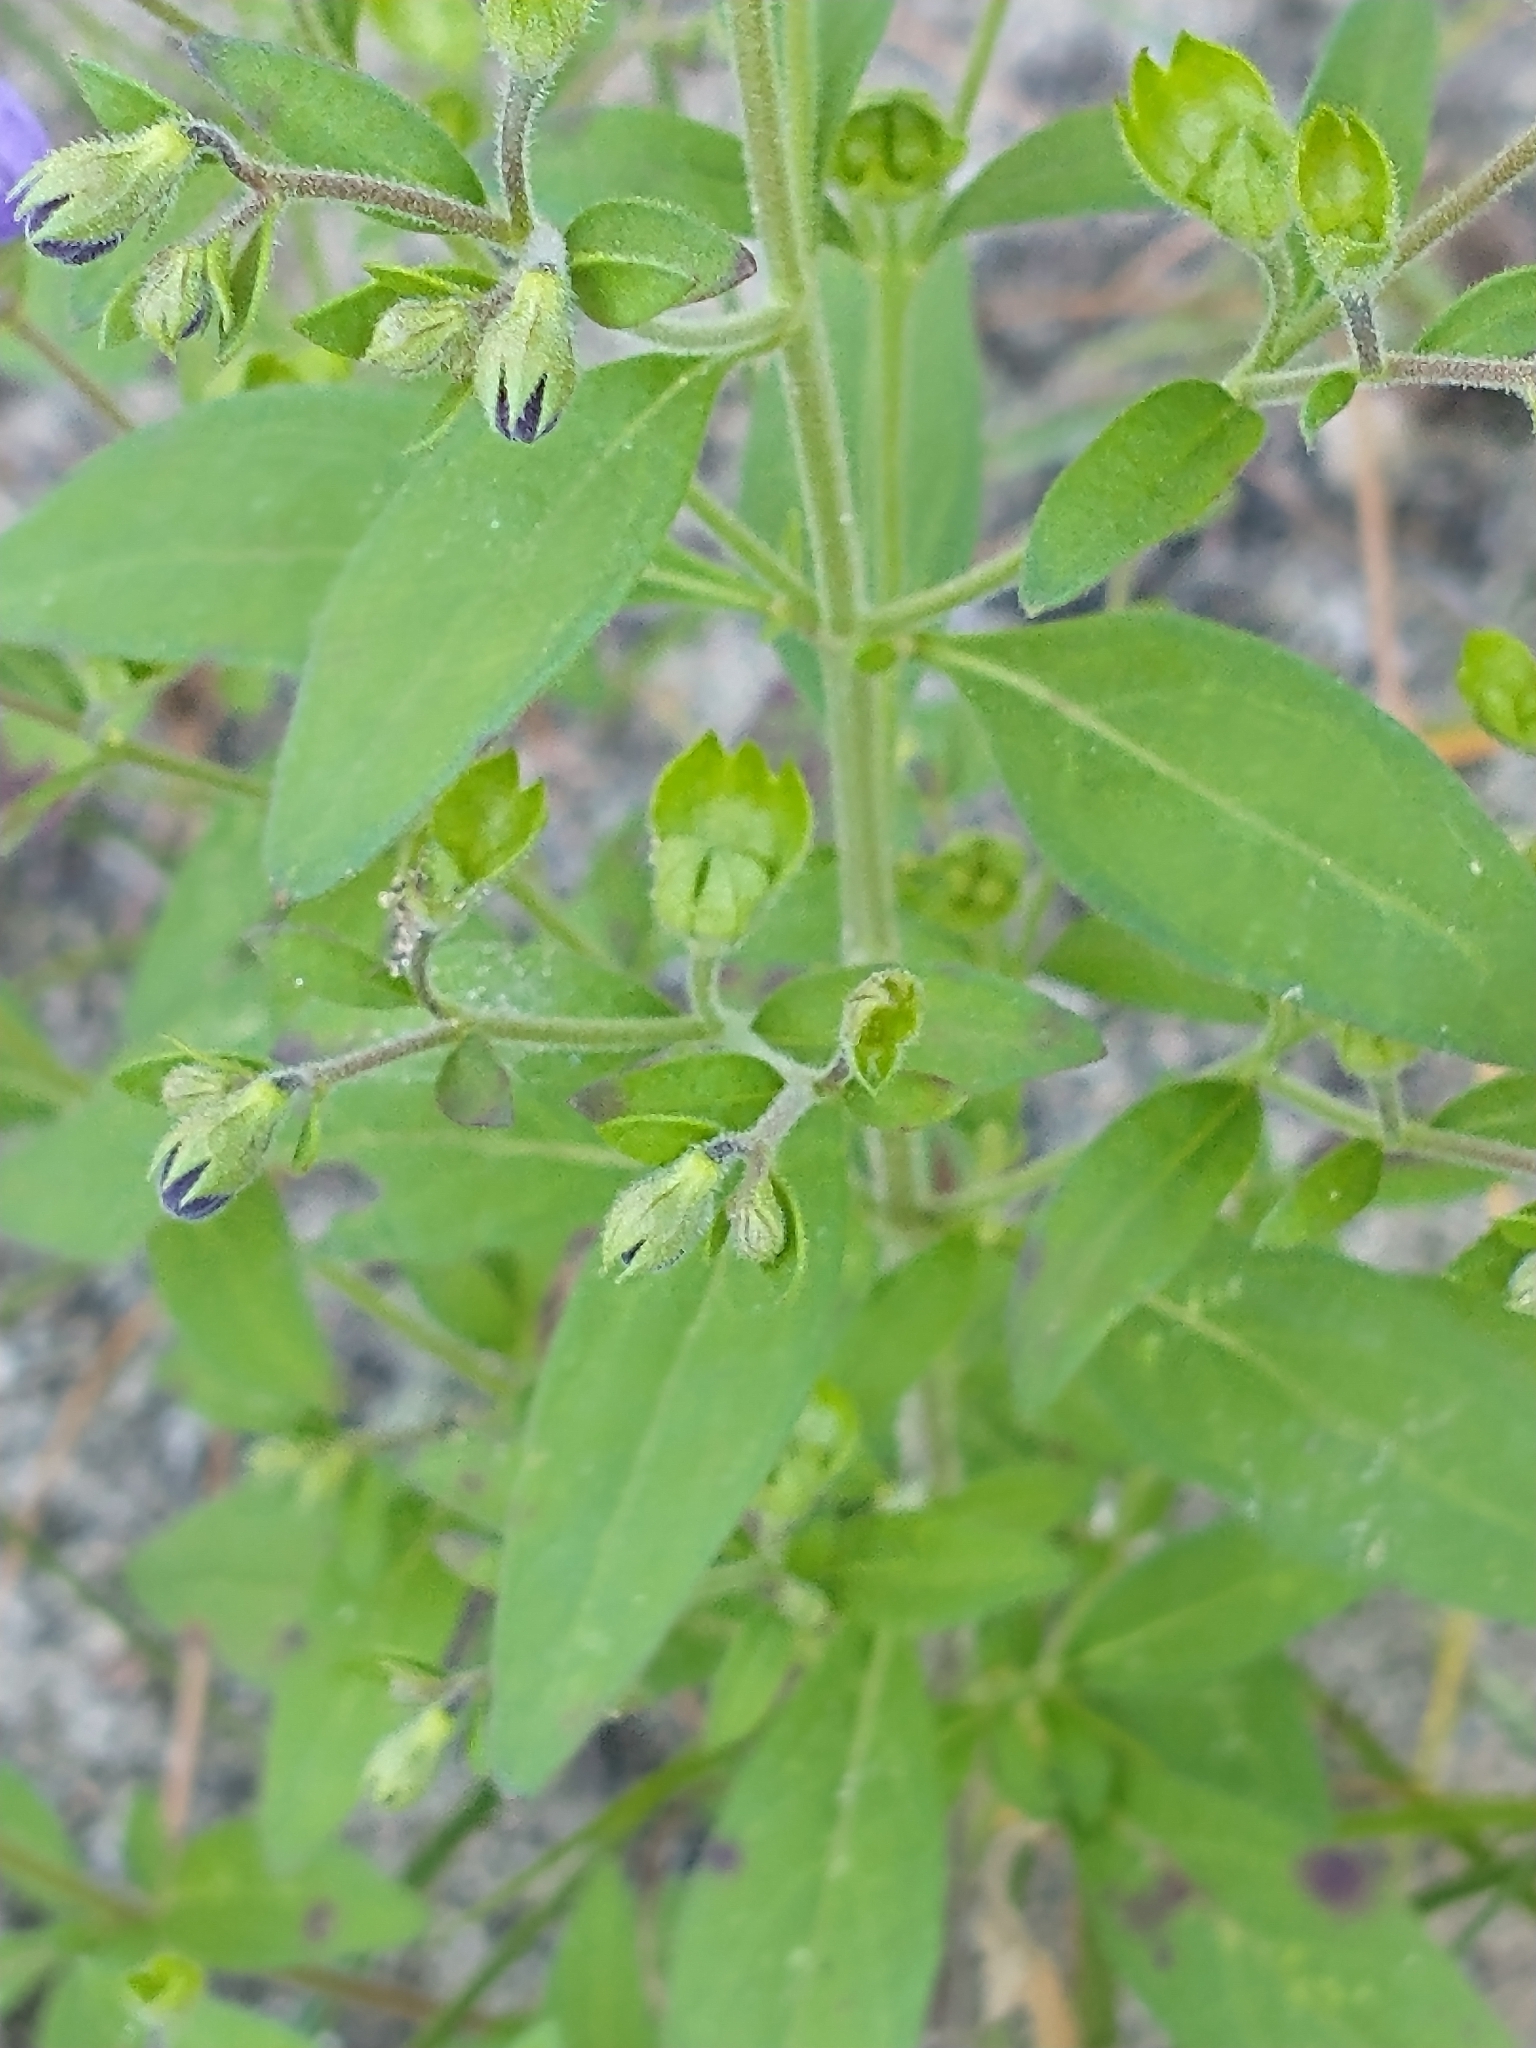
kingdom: Plantae
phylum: Tracheophyta
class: Magnoliopsida
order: Lamiales
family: Lamiaceae
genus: Trichostema
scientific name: Trichostema dichotomum
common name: Bastard pennyroyal
